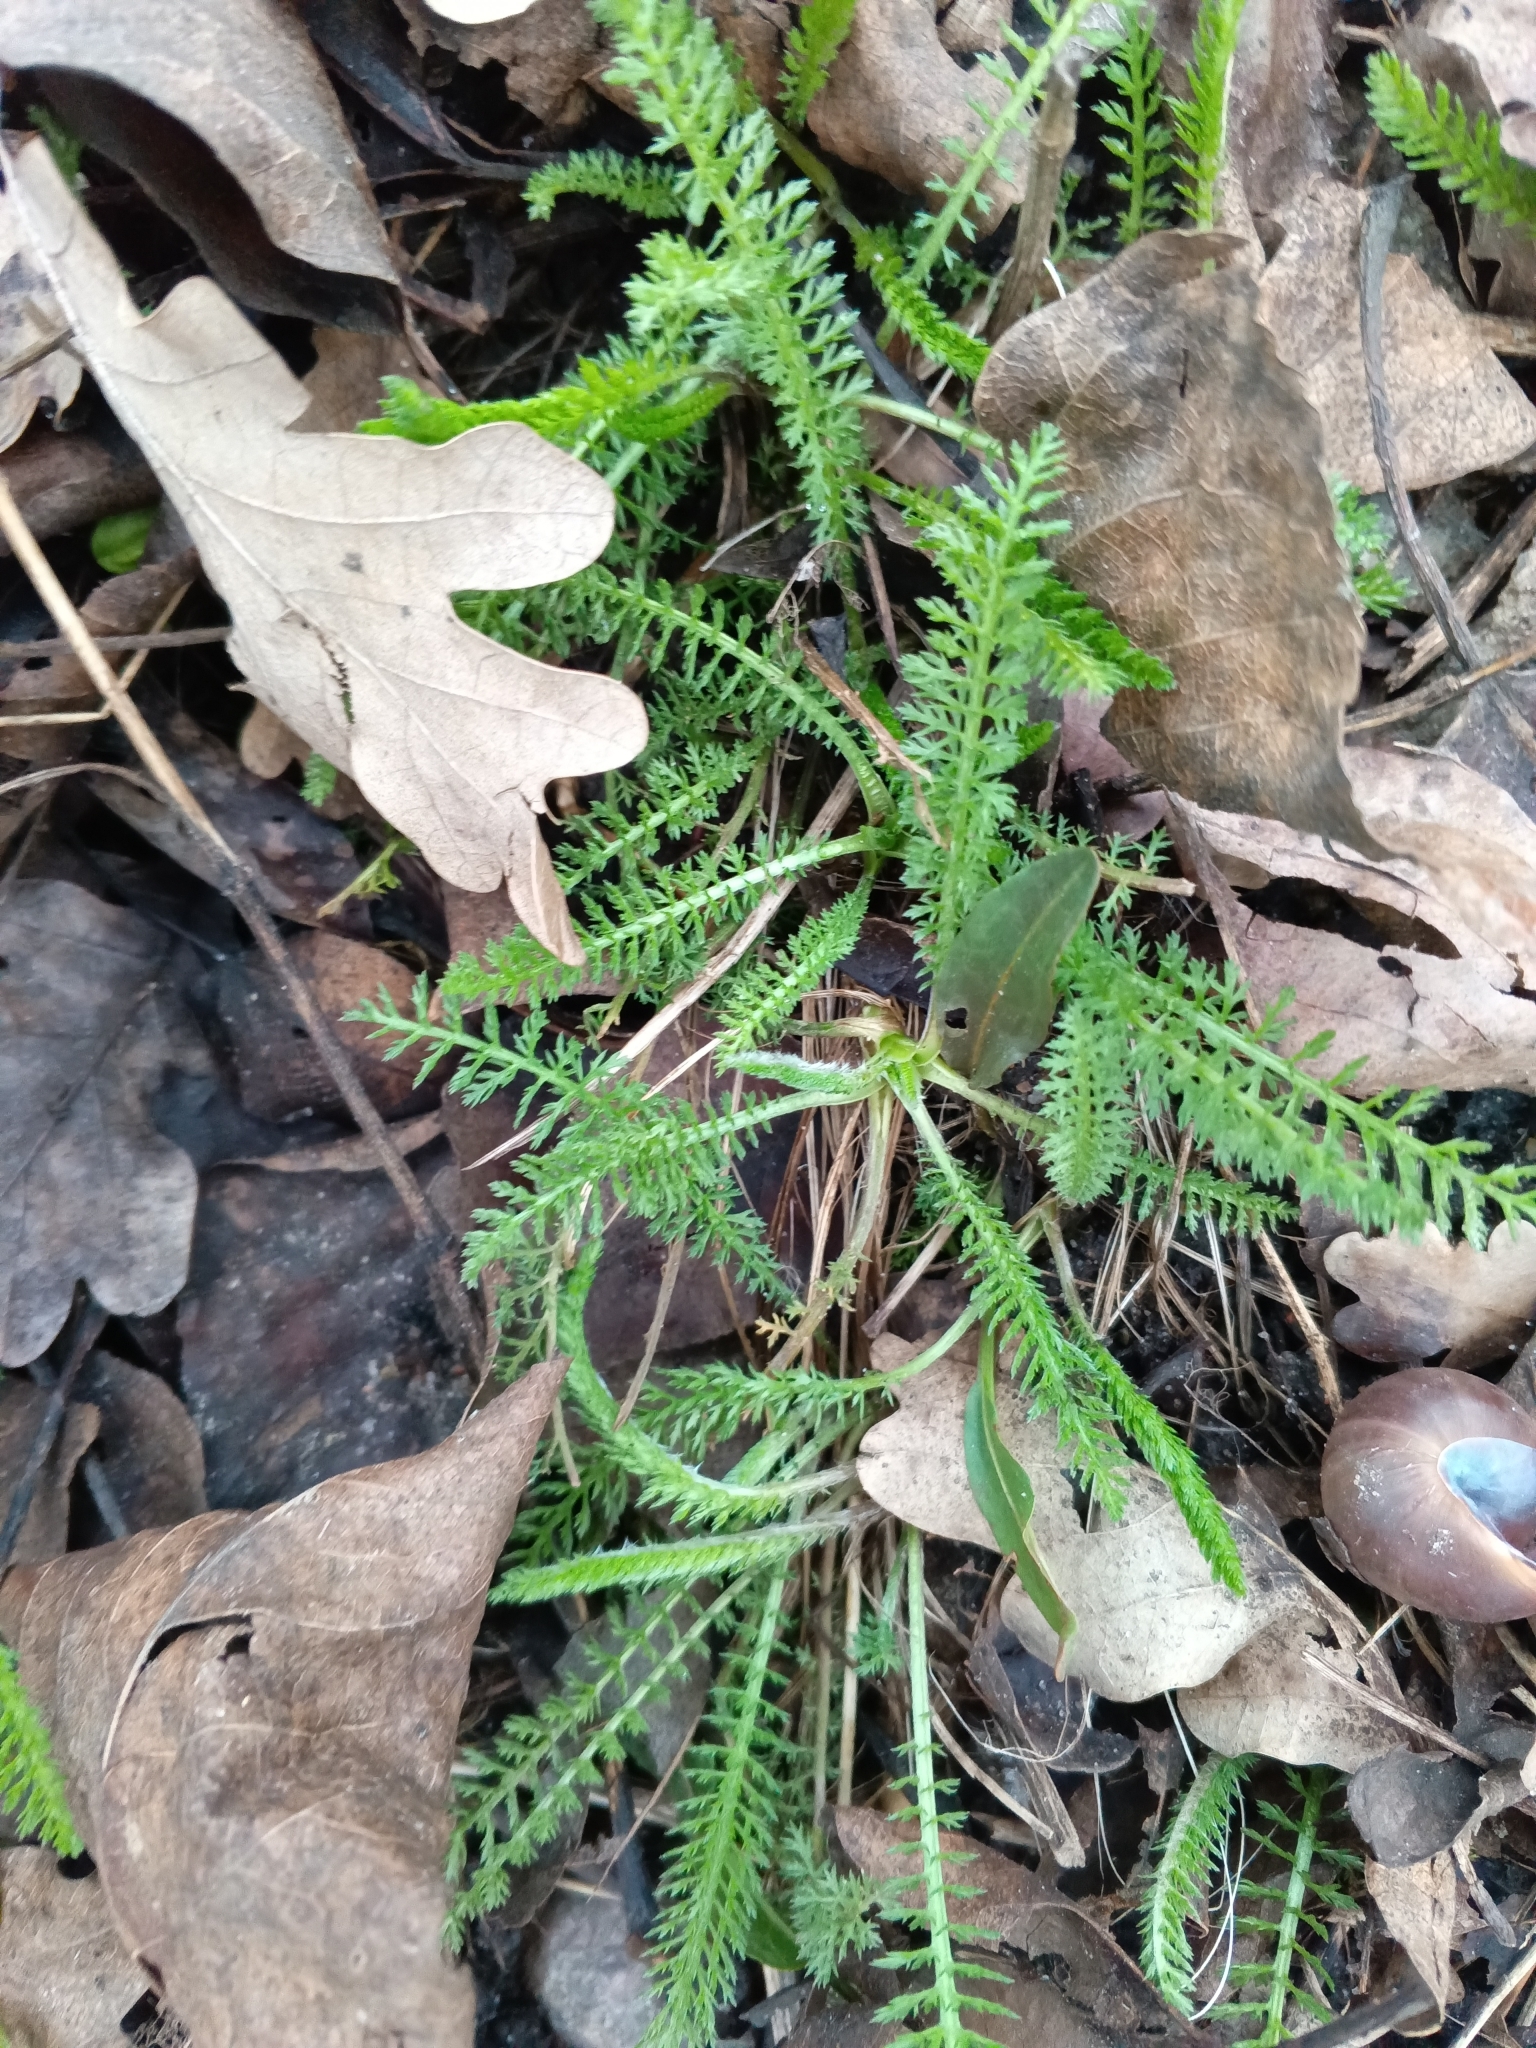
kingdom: Plantae
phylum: Tracheophyta
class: Magnoliopsida
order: Asterales
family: Asteraceae
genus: Achillea
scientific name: Achillea millefolium
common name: Yarrow
